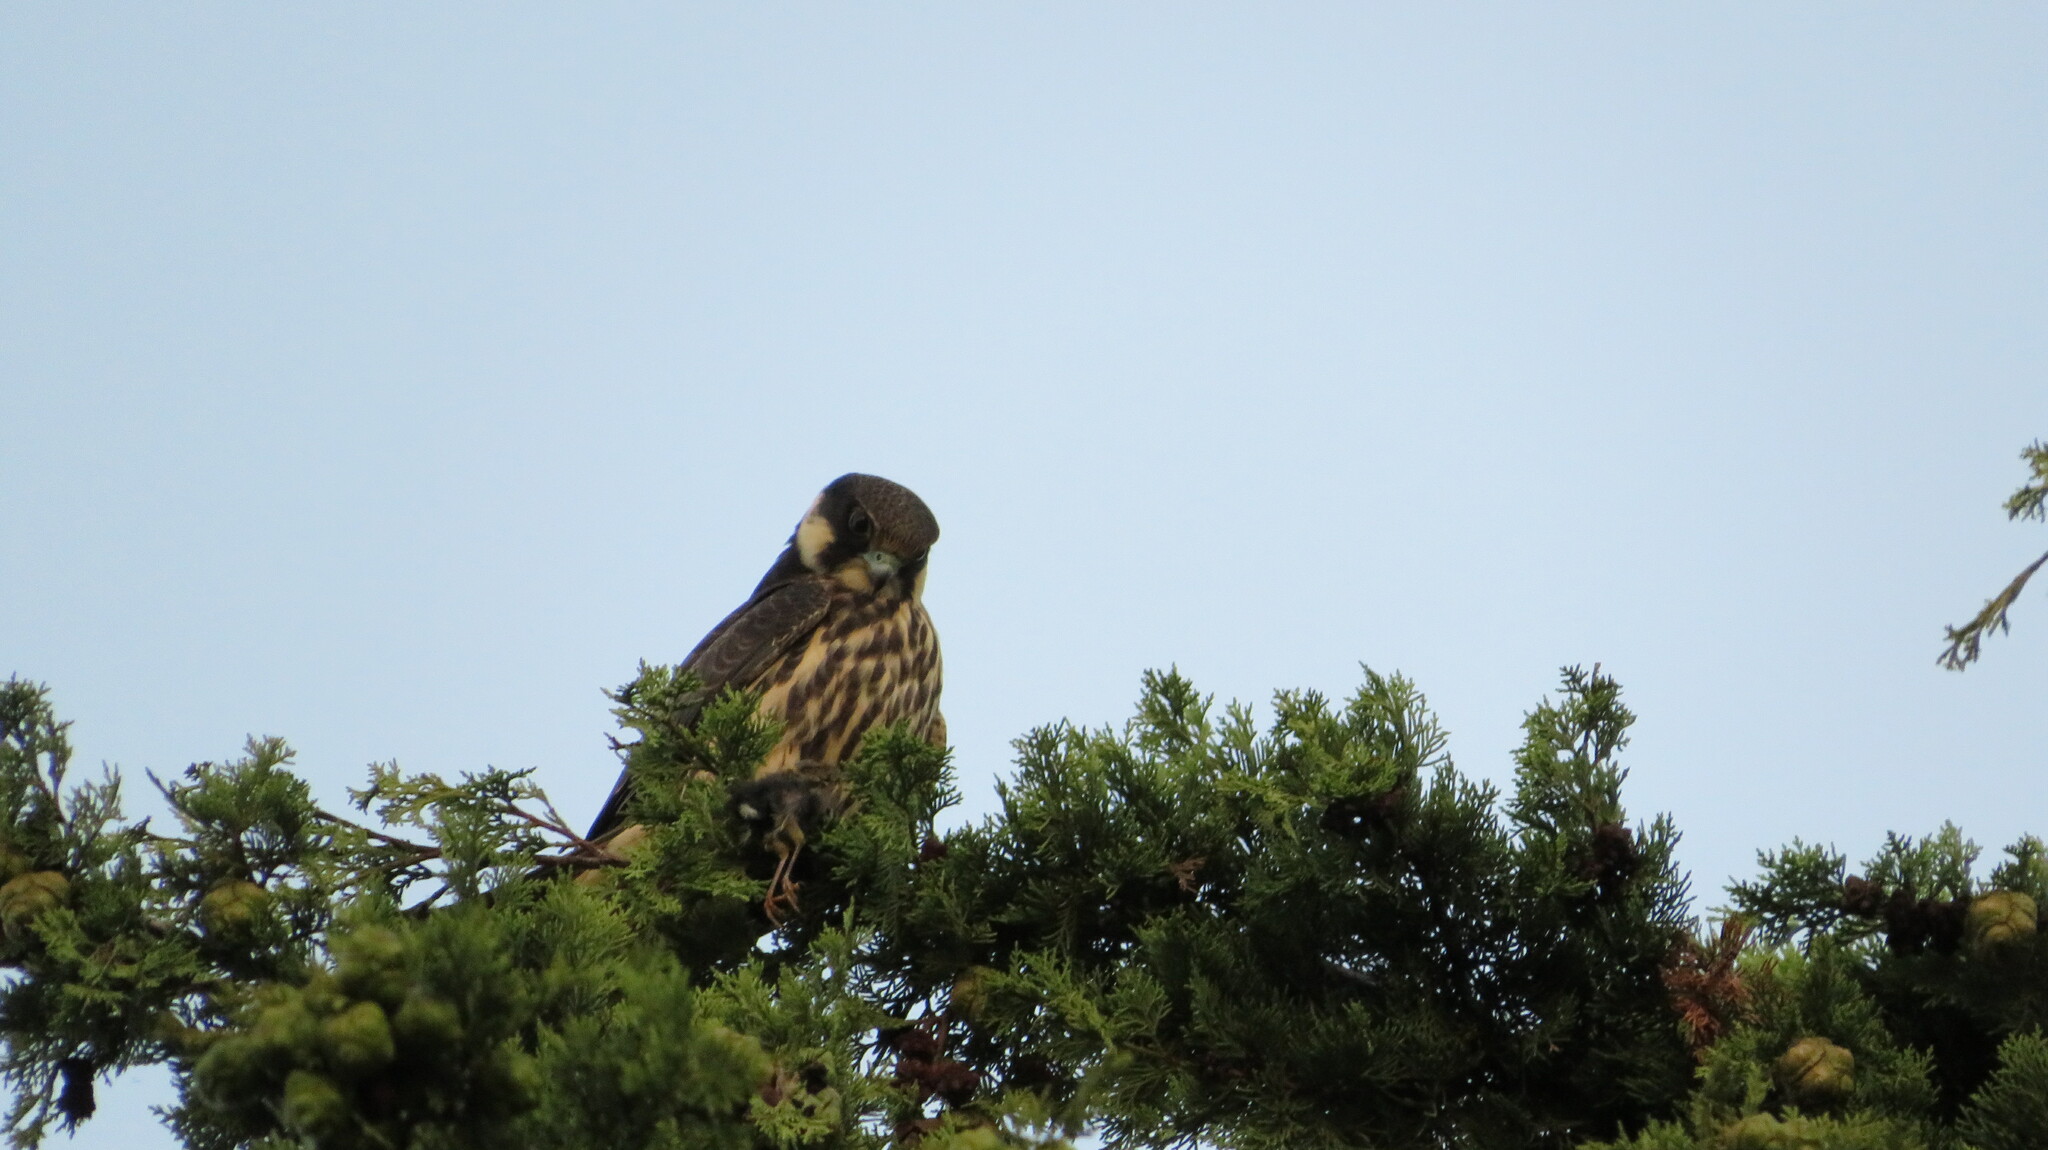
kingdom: Animalia
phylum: Chordata
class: Aves
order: Falconiformes
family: Falconidae
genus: Falco
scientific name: Falco subbuteo
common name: Eurasian hobby
